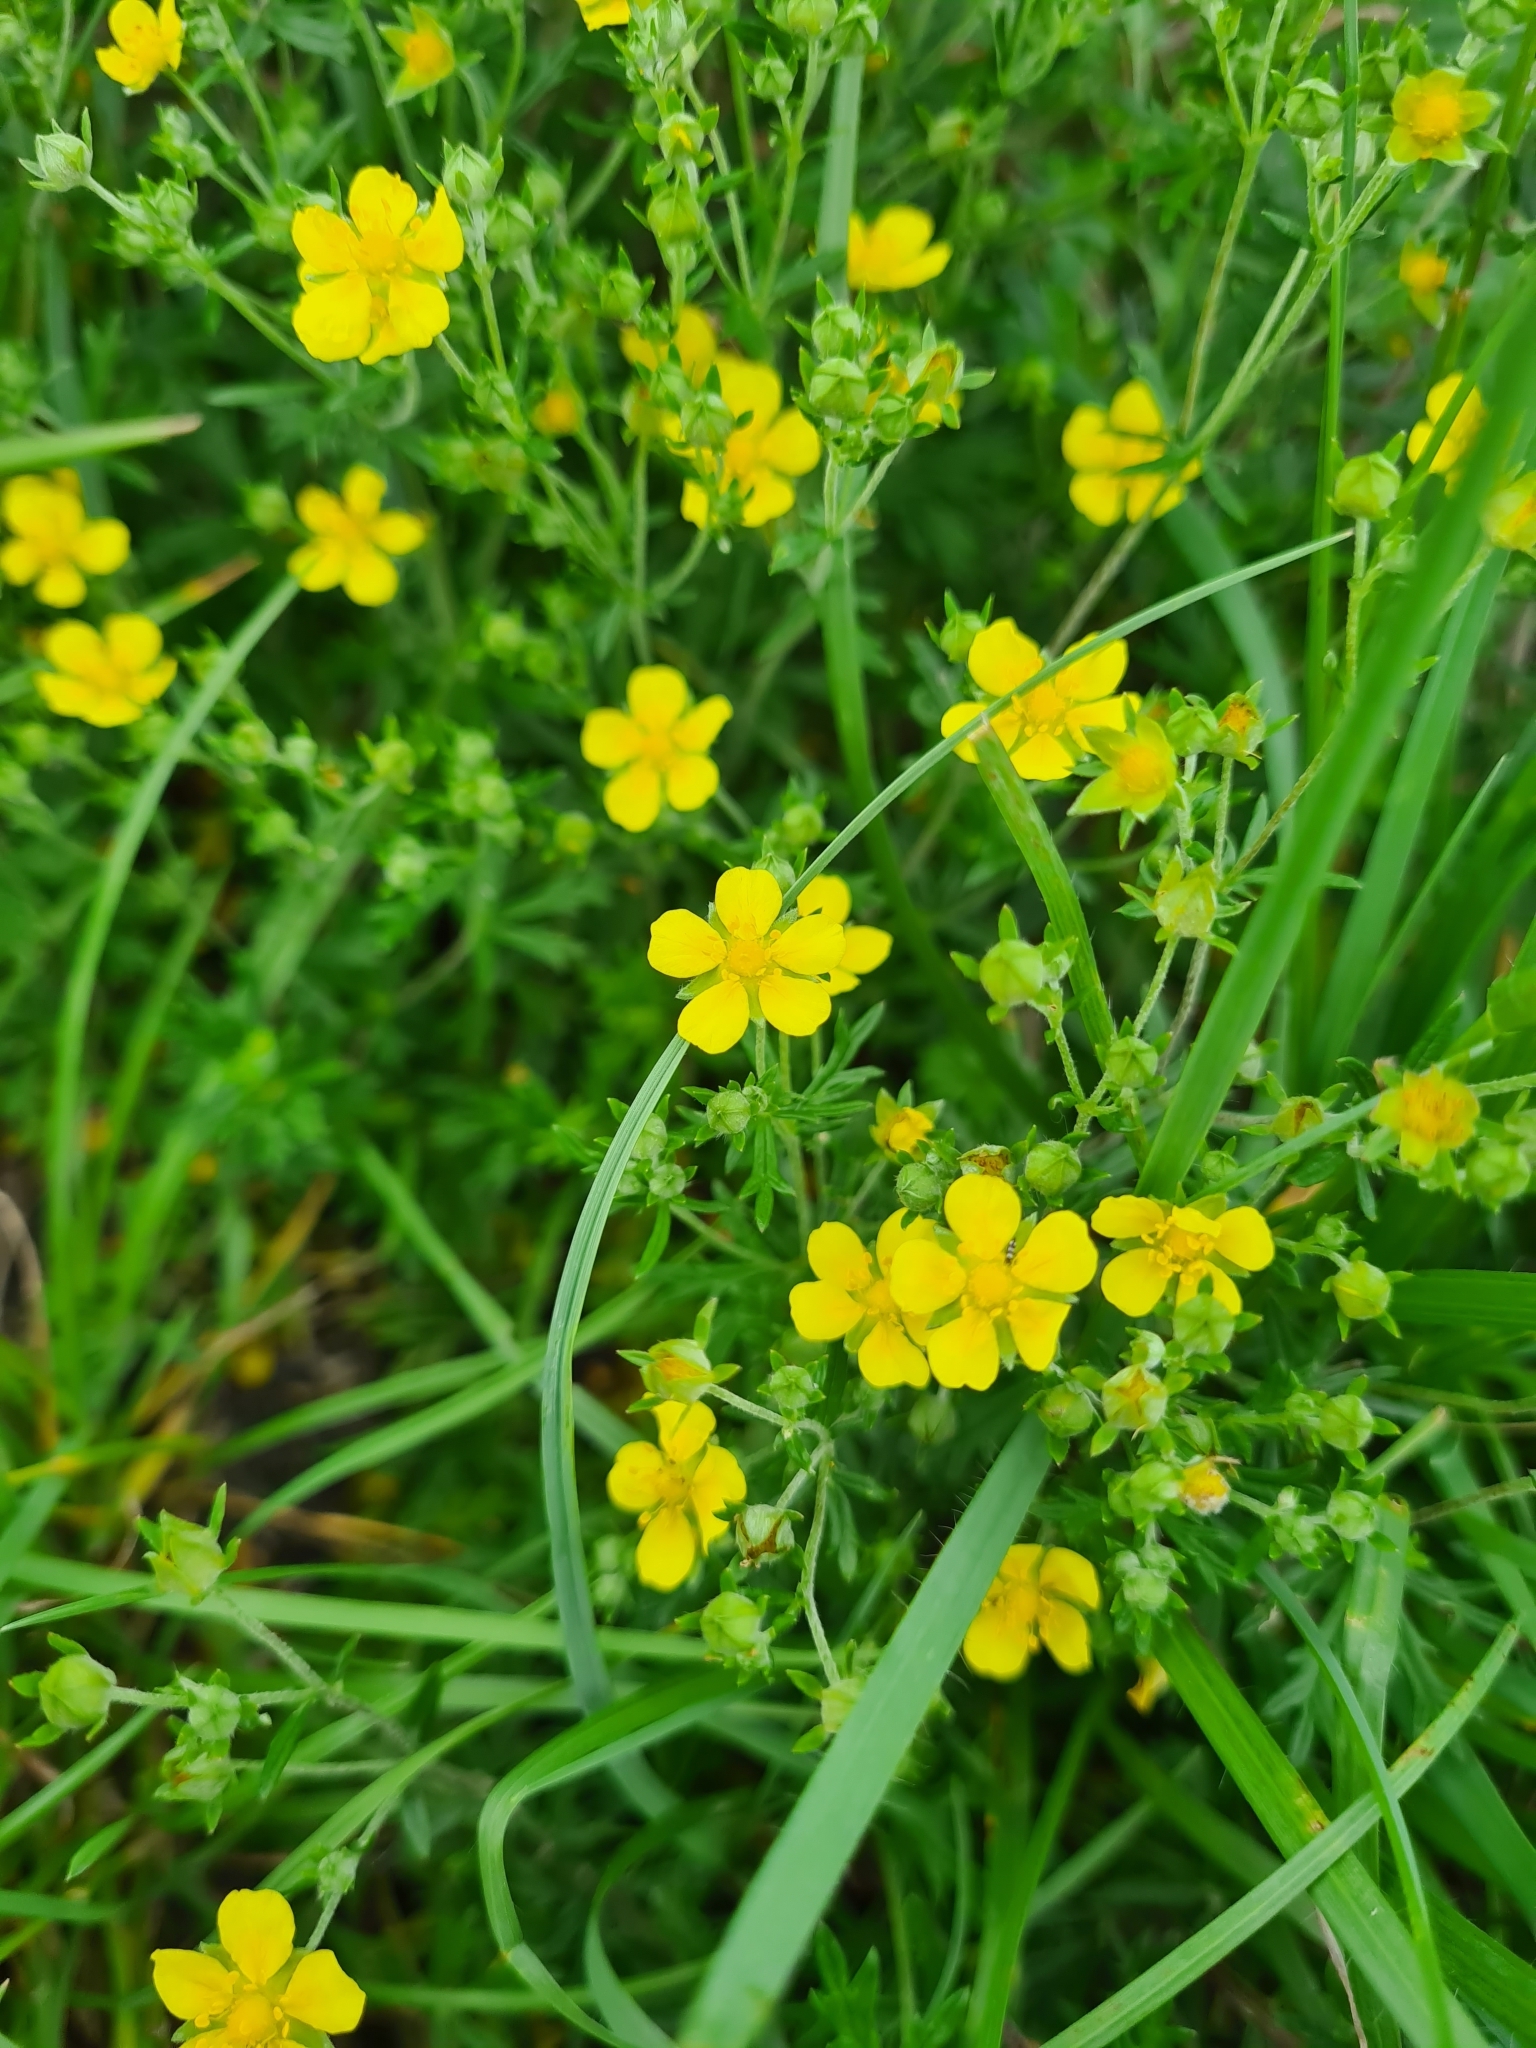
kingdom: Plantae
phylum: Tracheophyta
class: Magnoliopsida
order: Rosales
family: Rosaceae
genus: Potentilla
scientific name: Potentilla argentea
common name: Hoary cinquefoil
